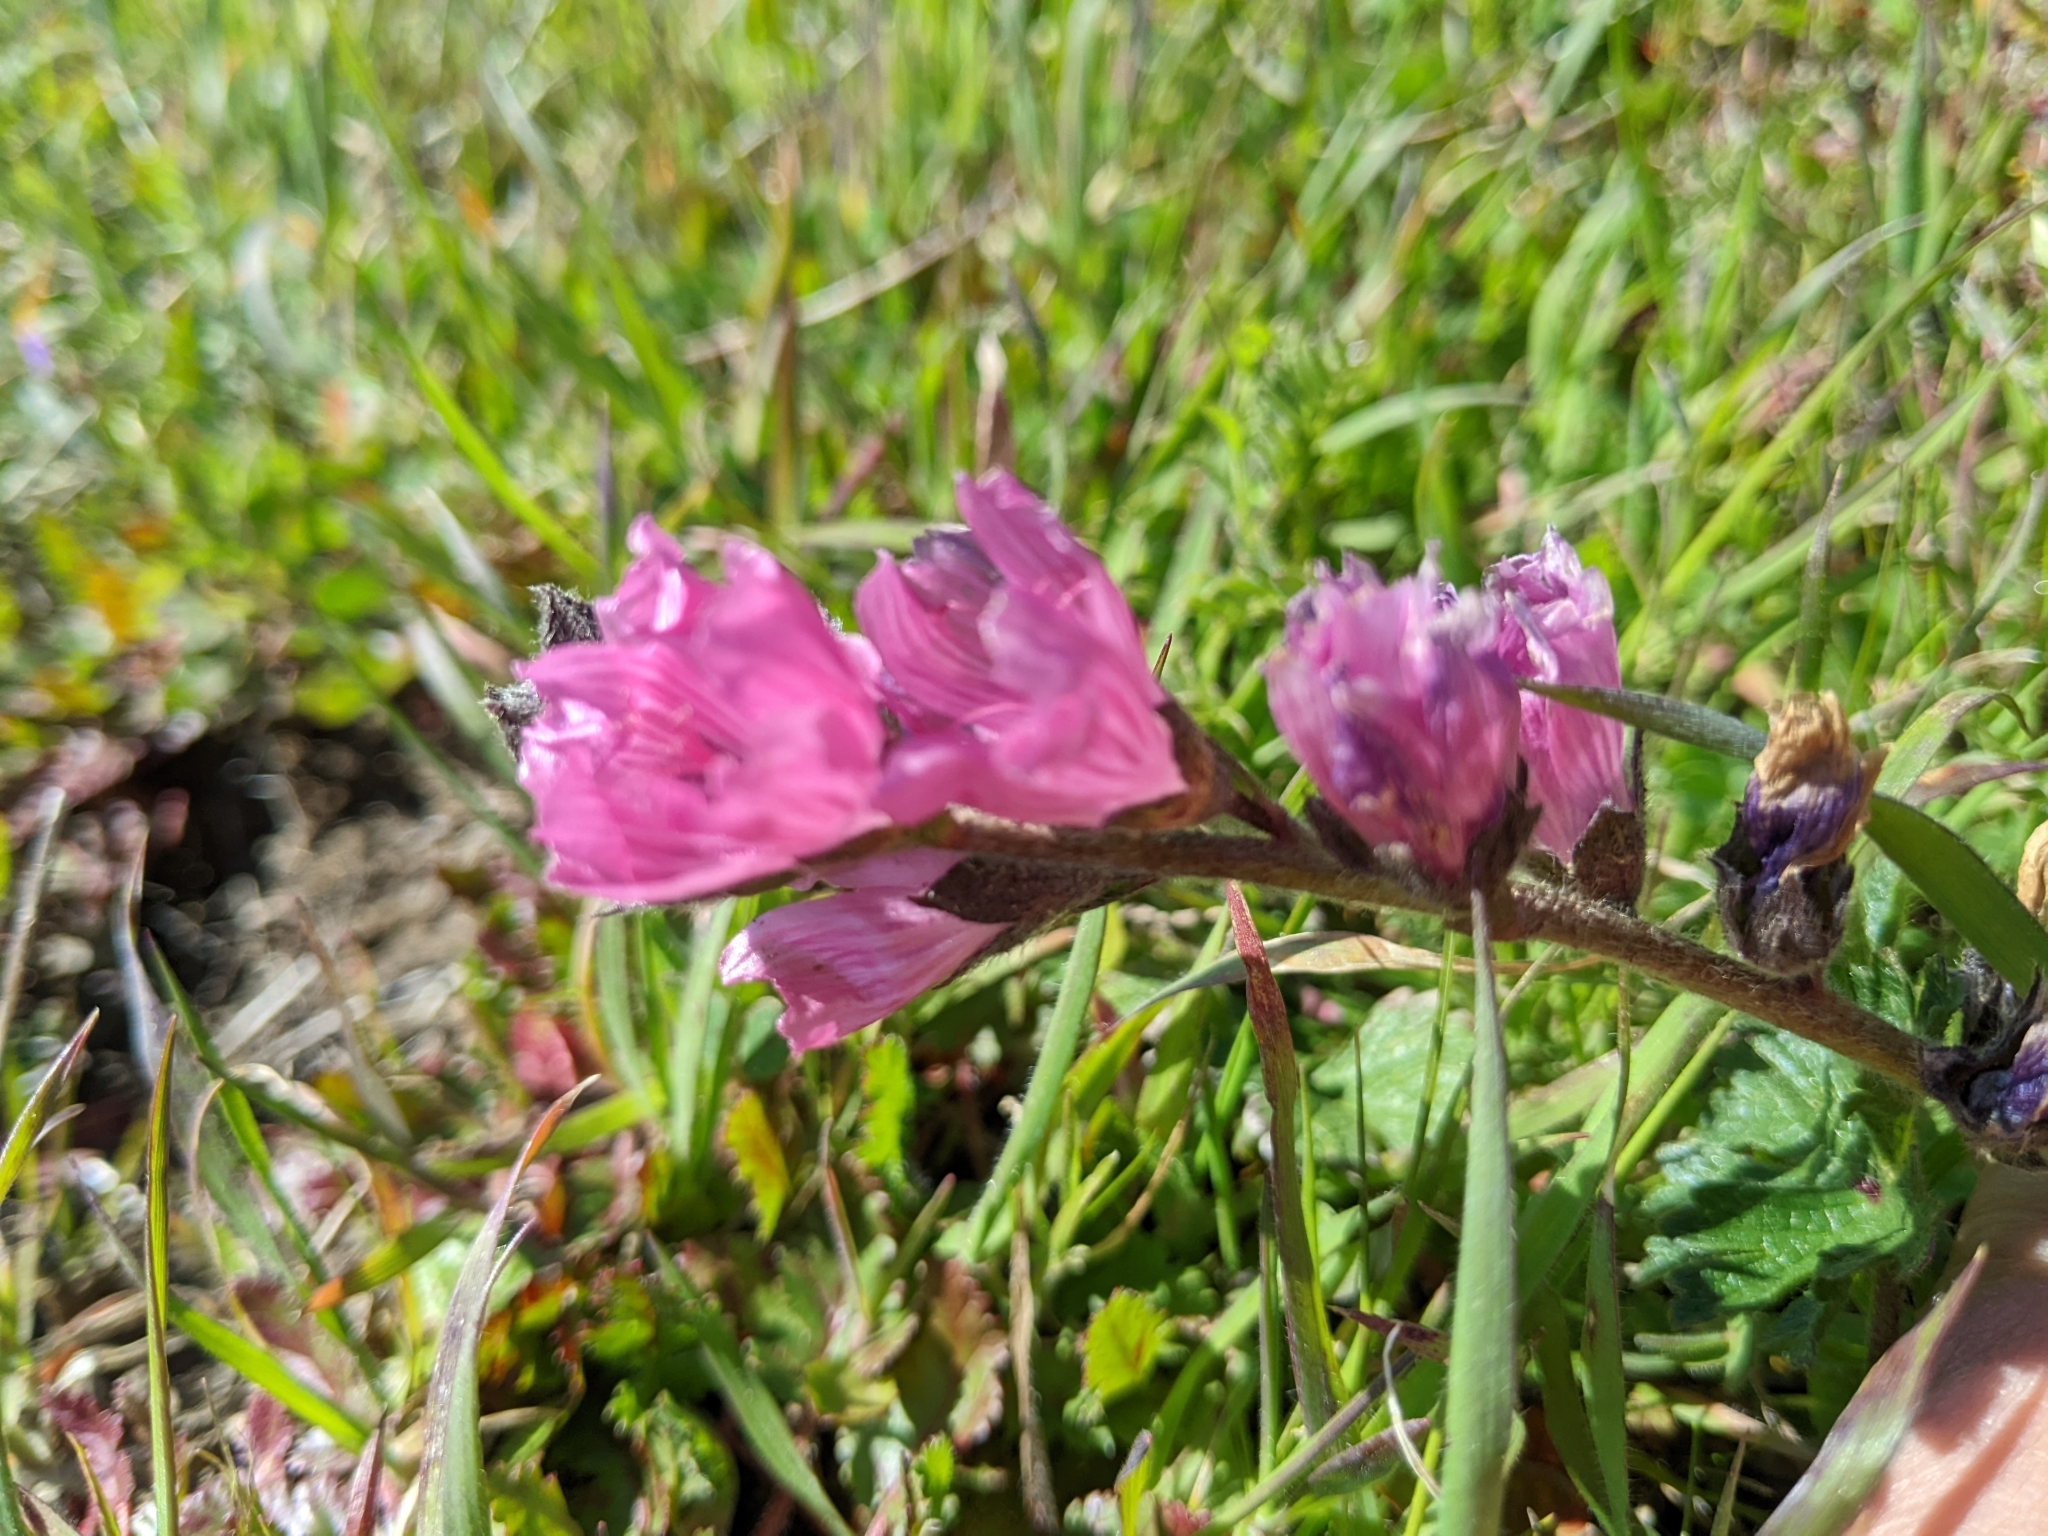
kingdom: Plantae
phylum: Tracheophyta
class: Magnoliopsida
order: Malvales
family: Malvaceae
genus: Sidalcea
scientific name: Sidalcea malviflora
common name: Greek mallow
